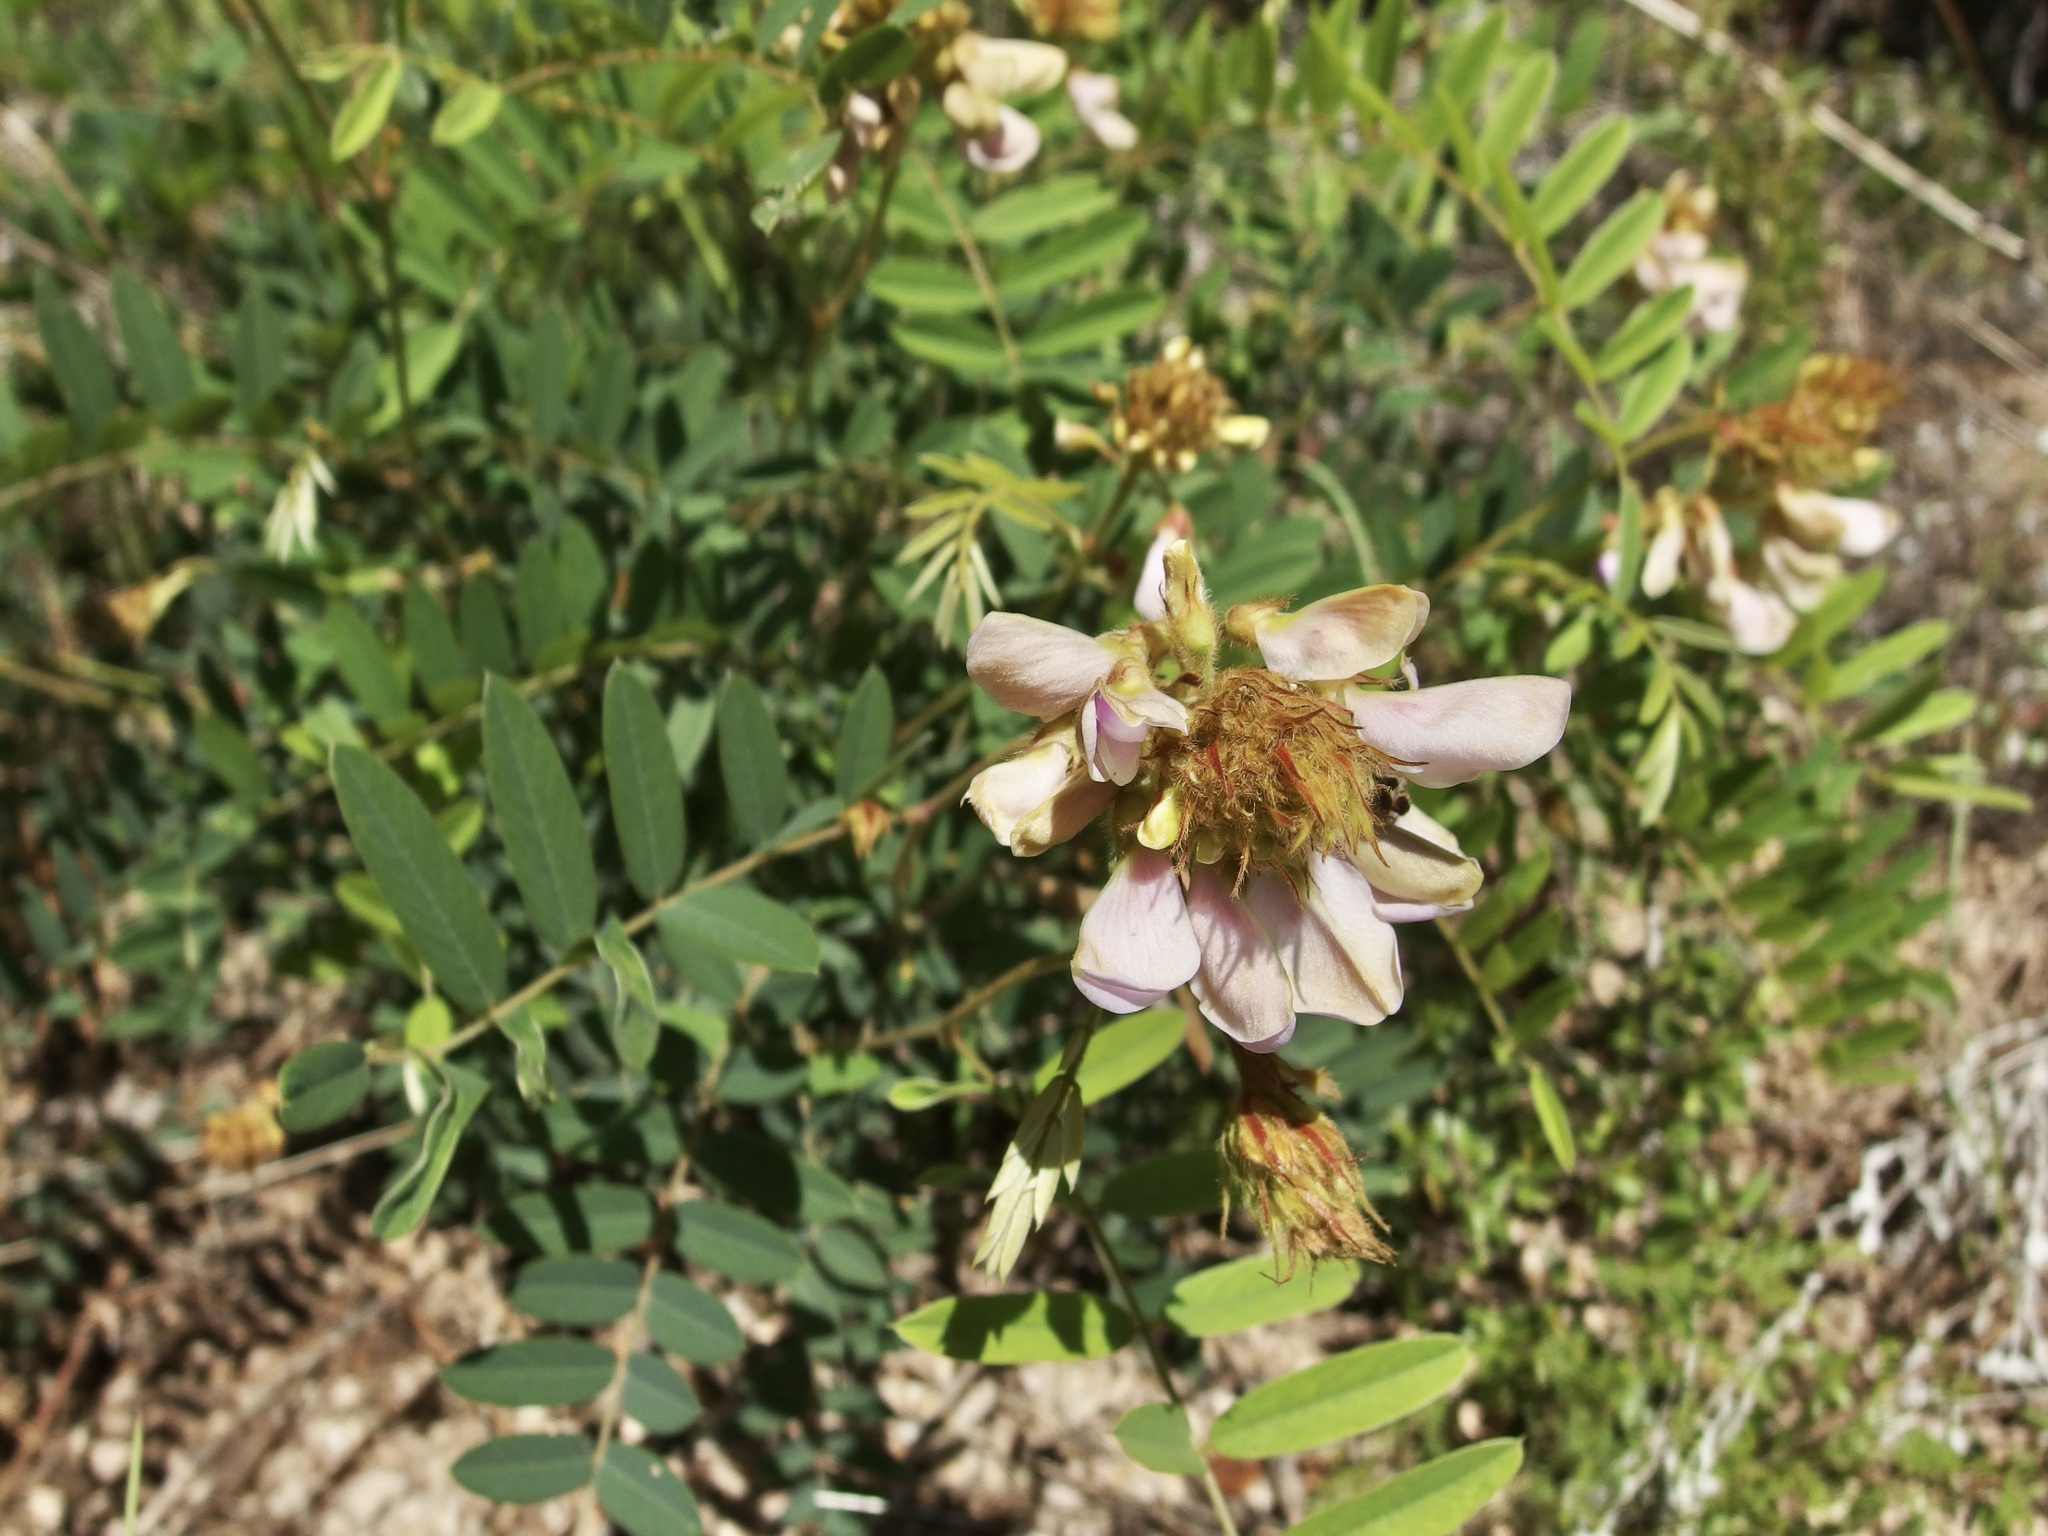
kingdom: Plantae
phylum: Tracheophyta
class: Magnoliopsida
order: Fabales
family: Fabaceae
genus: Tephrosia
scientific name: Tephrosia thurberi
